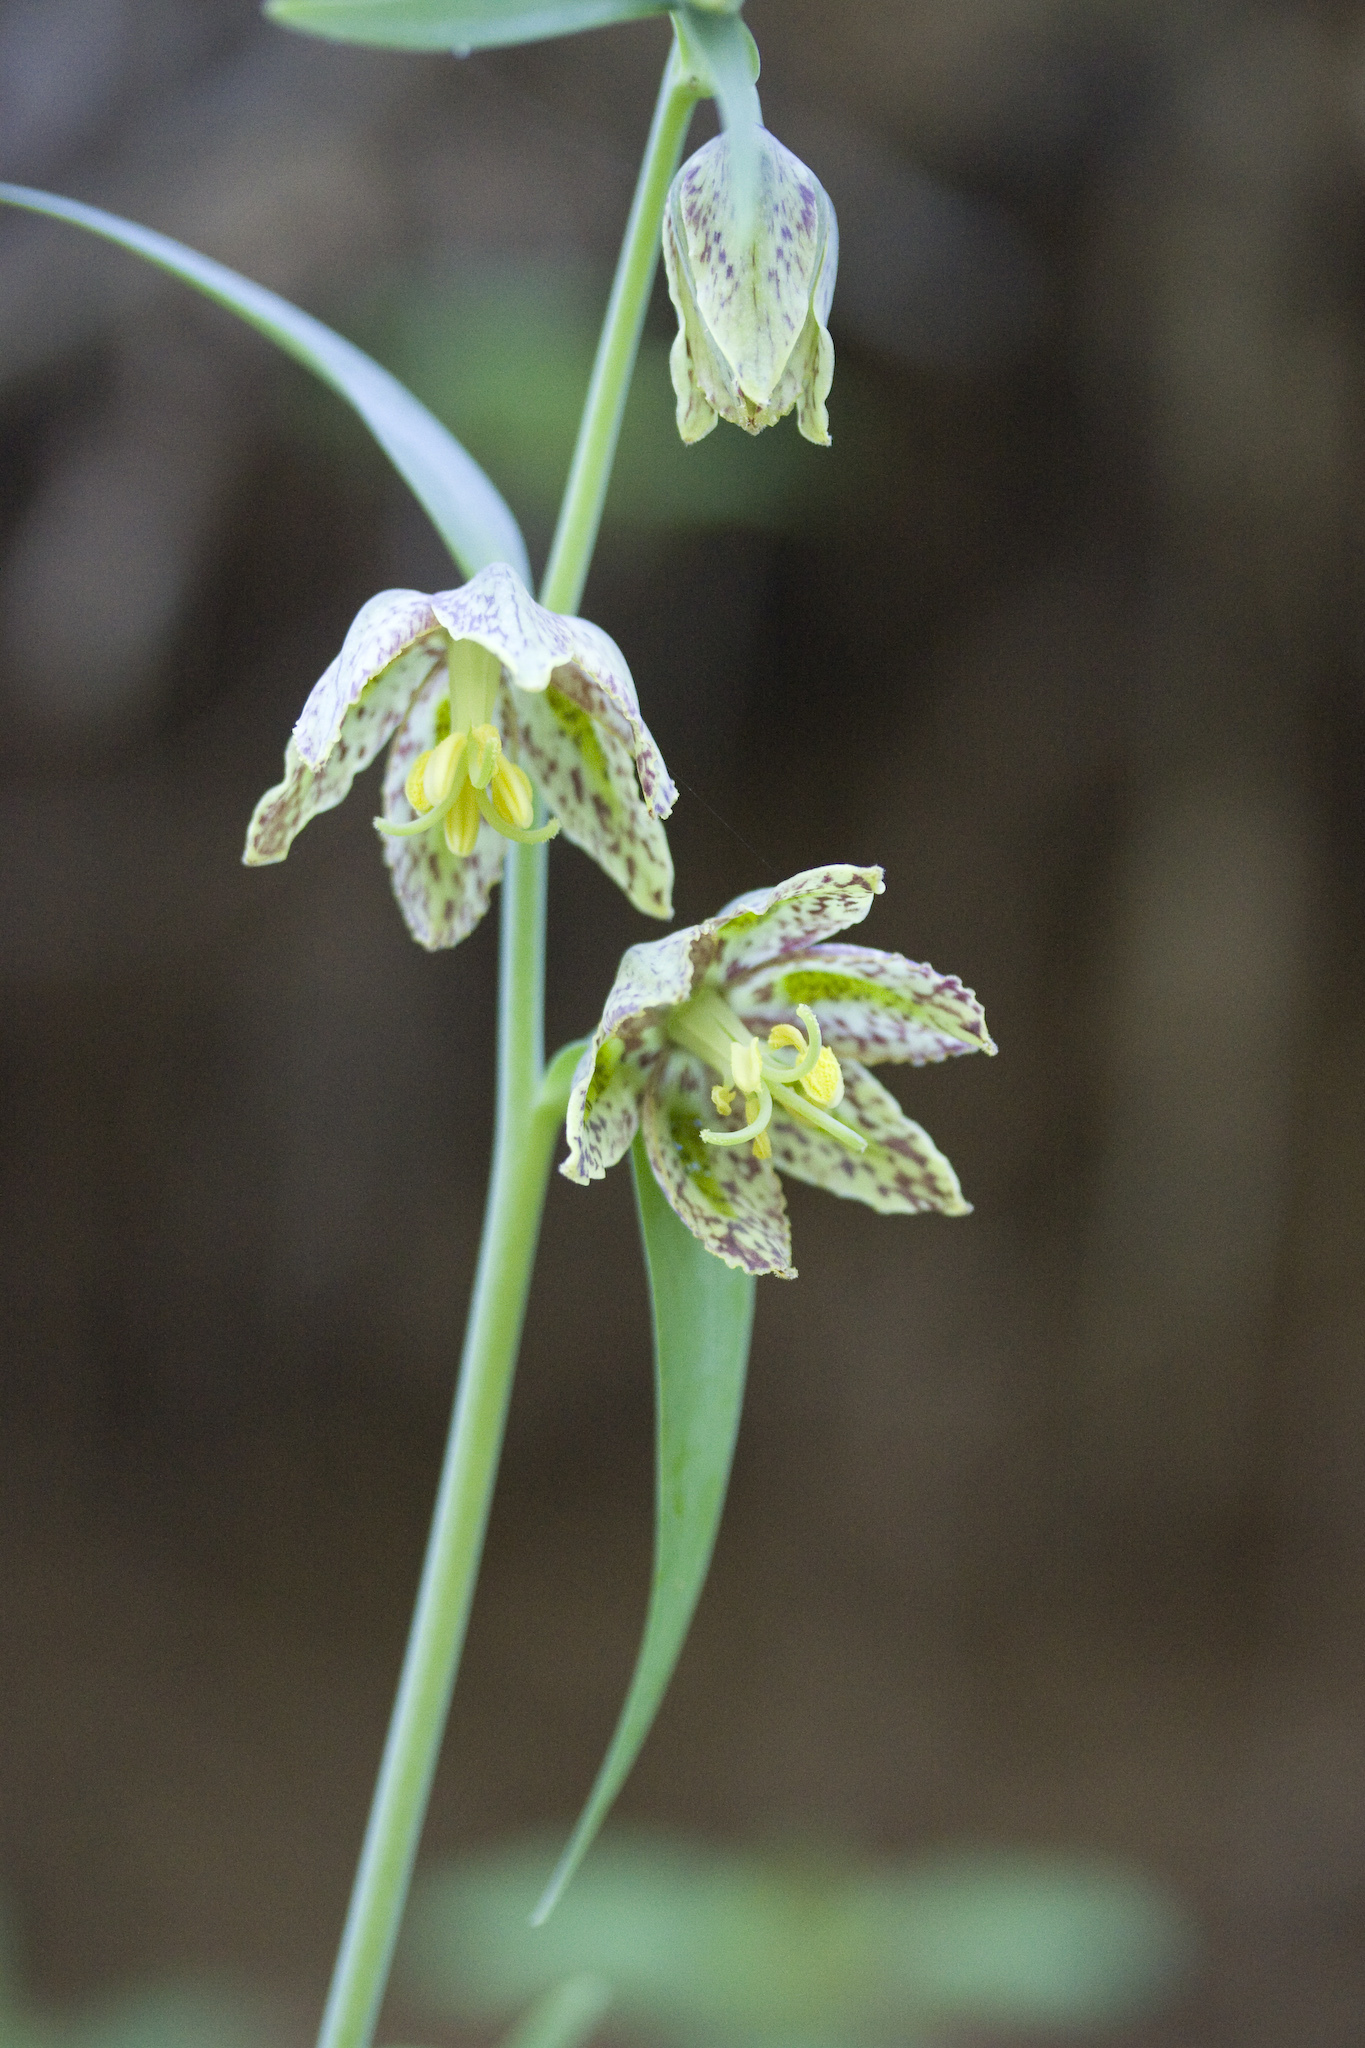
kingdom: Plantae
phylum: Tracheophyta
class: Liliopsida
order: Liliales
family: Liliaceae
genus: Fritillaria
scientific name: Fritillaria affinis
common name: Ojai fritillary
